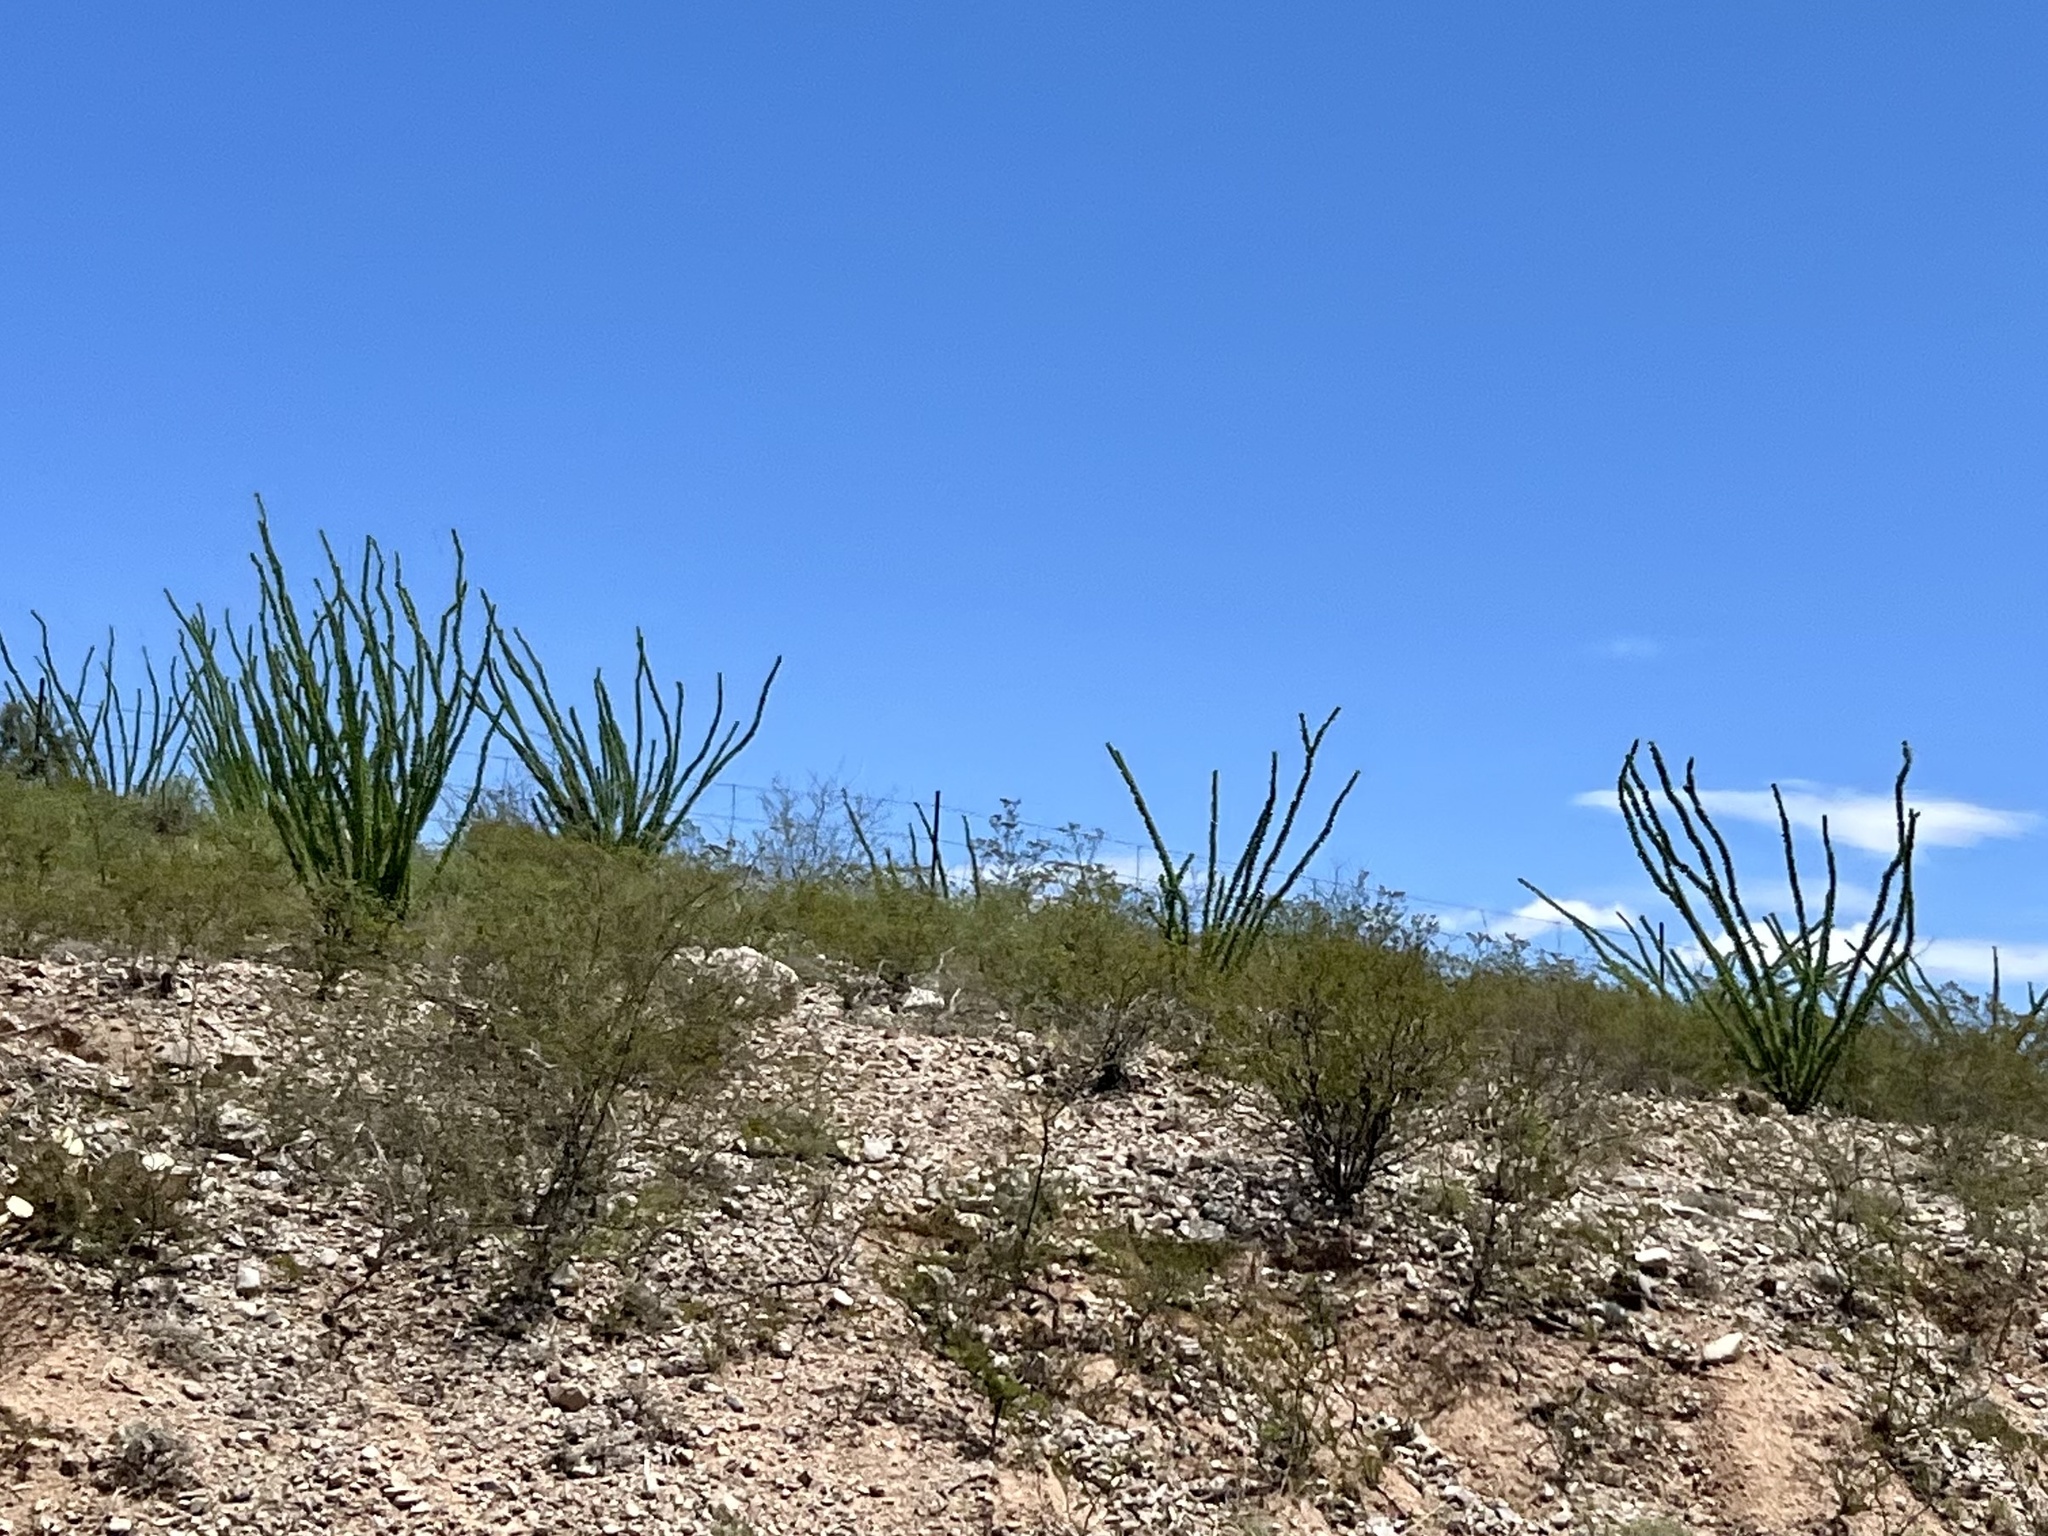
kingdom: Plantae
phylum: Tracheophyta
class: Magnoliopsida
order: Ericales
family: Fouquieriaceae
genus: Fouquieria
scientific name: Fouquieria splendens
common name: Vine-cactus
